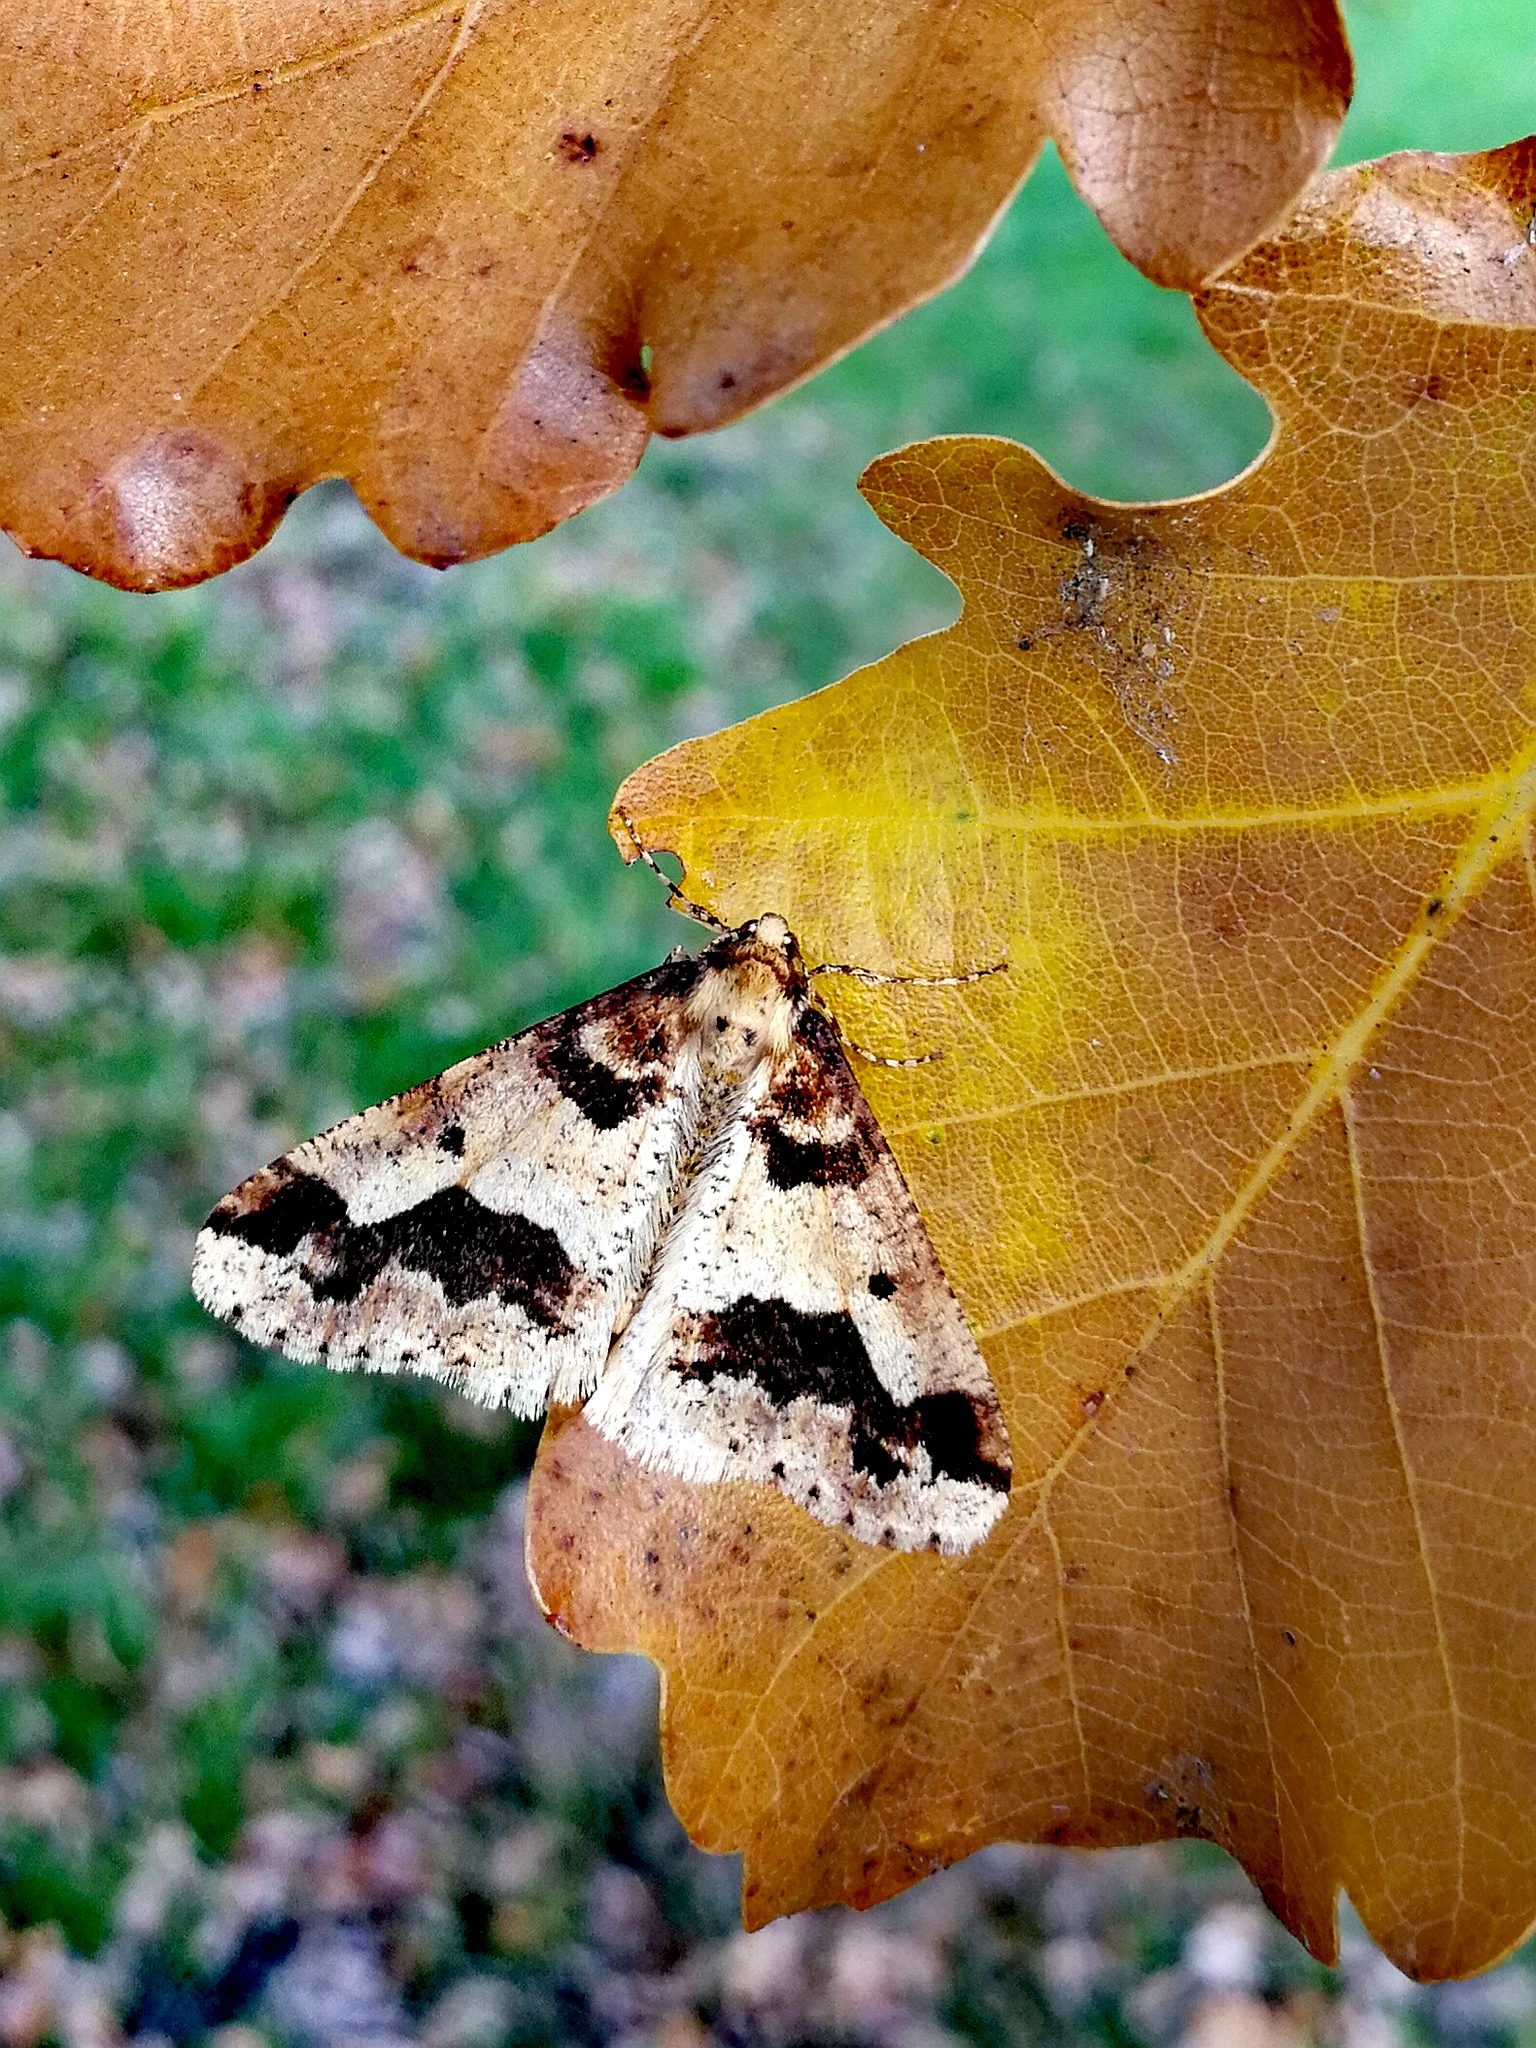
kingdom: Animalia
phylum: Arthropoda
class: Insecta
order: Lepidoptera
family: Geometridae
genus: Erannis
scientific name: Erannis defoliaria
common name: Mottled umber
